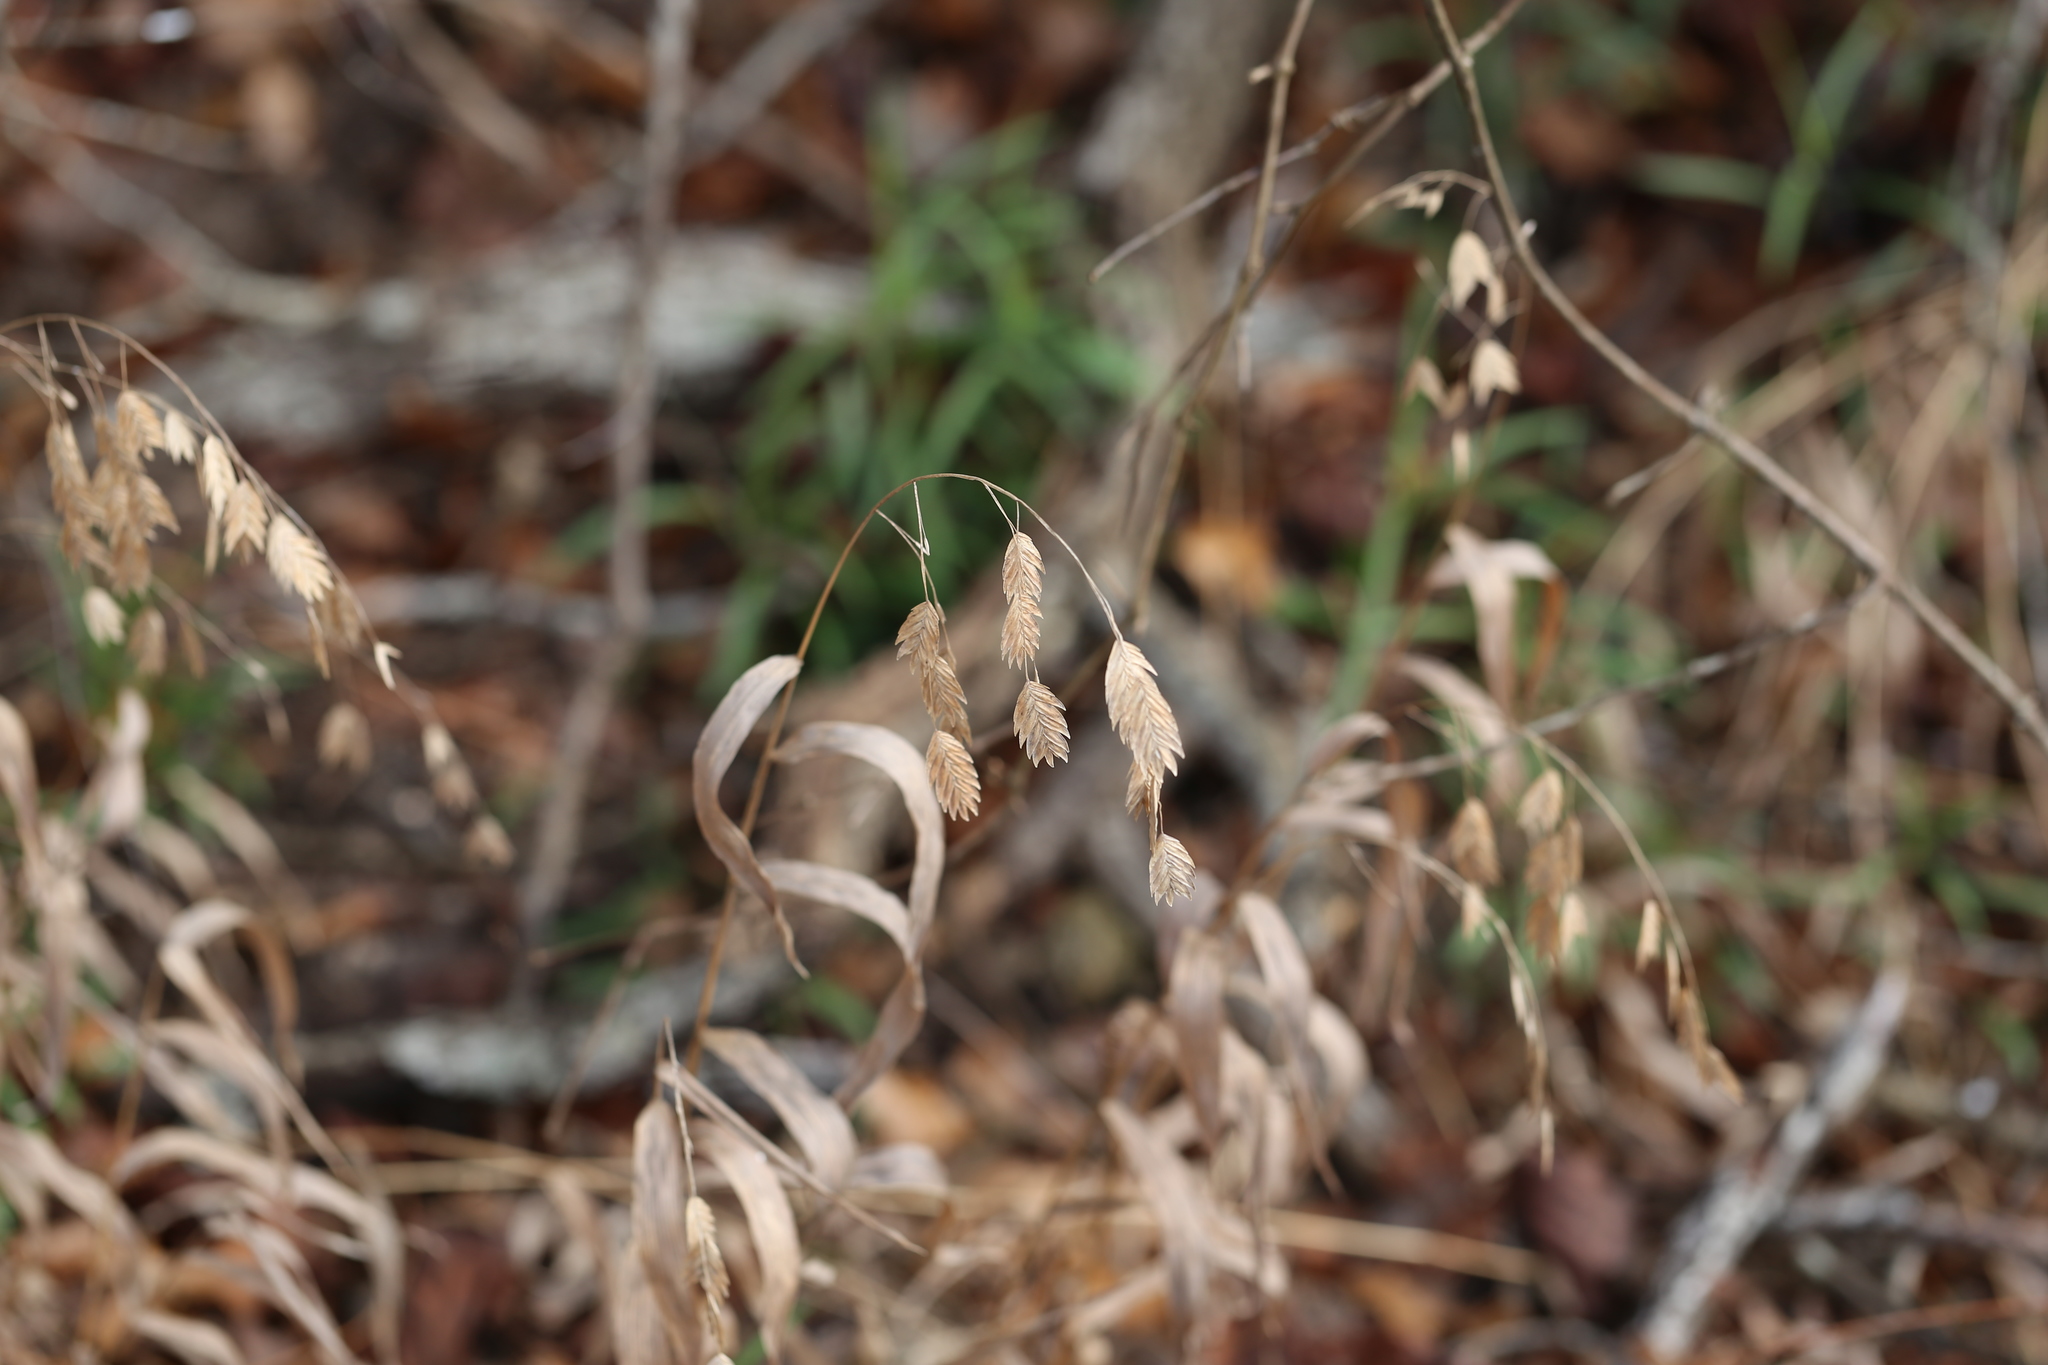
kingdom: Plantae
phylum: Tracheophyta
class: Liliopsida
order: Poales
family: Poaceae
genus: Chasmanthium
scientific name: Chasmanthium latifolium
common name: Broad-leaved chasmanthium
